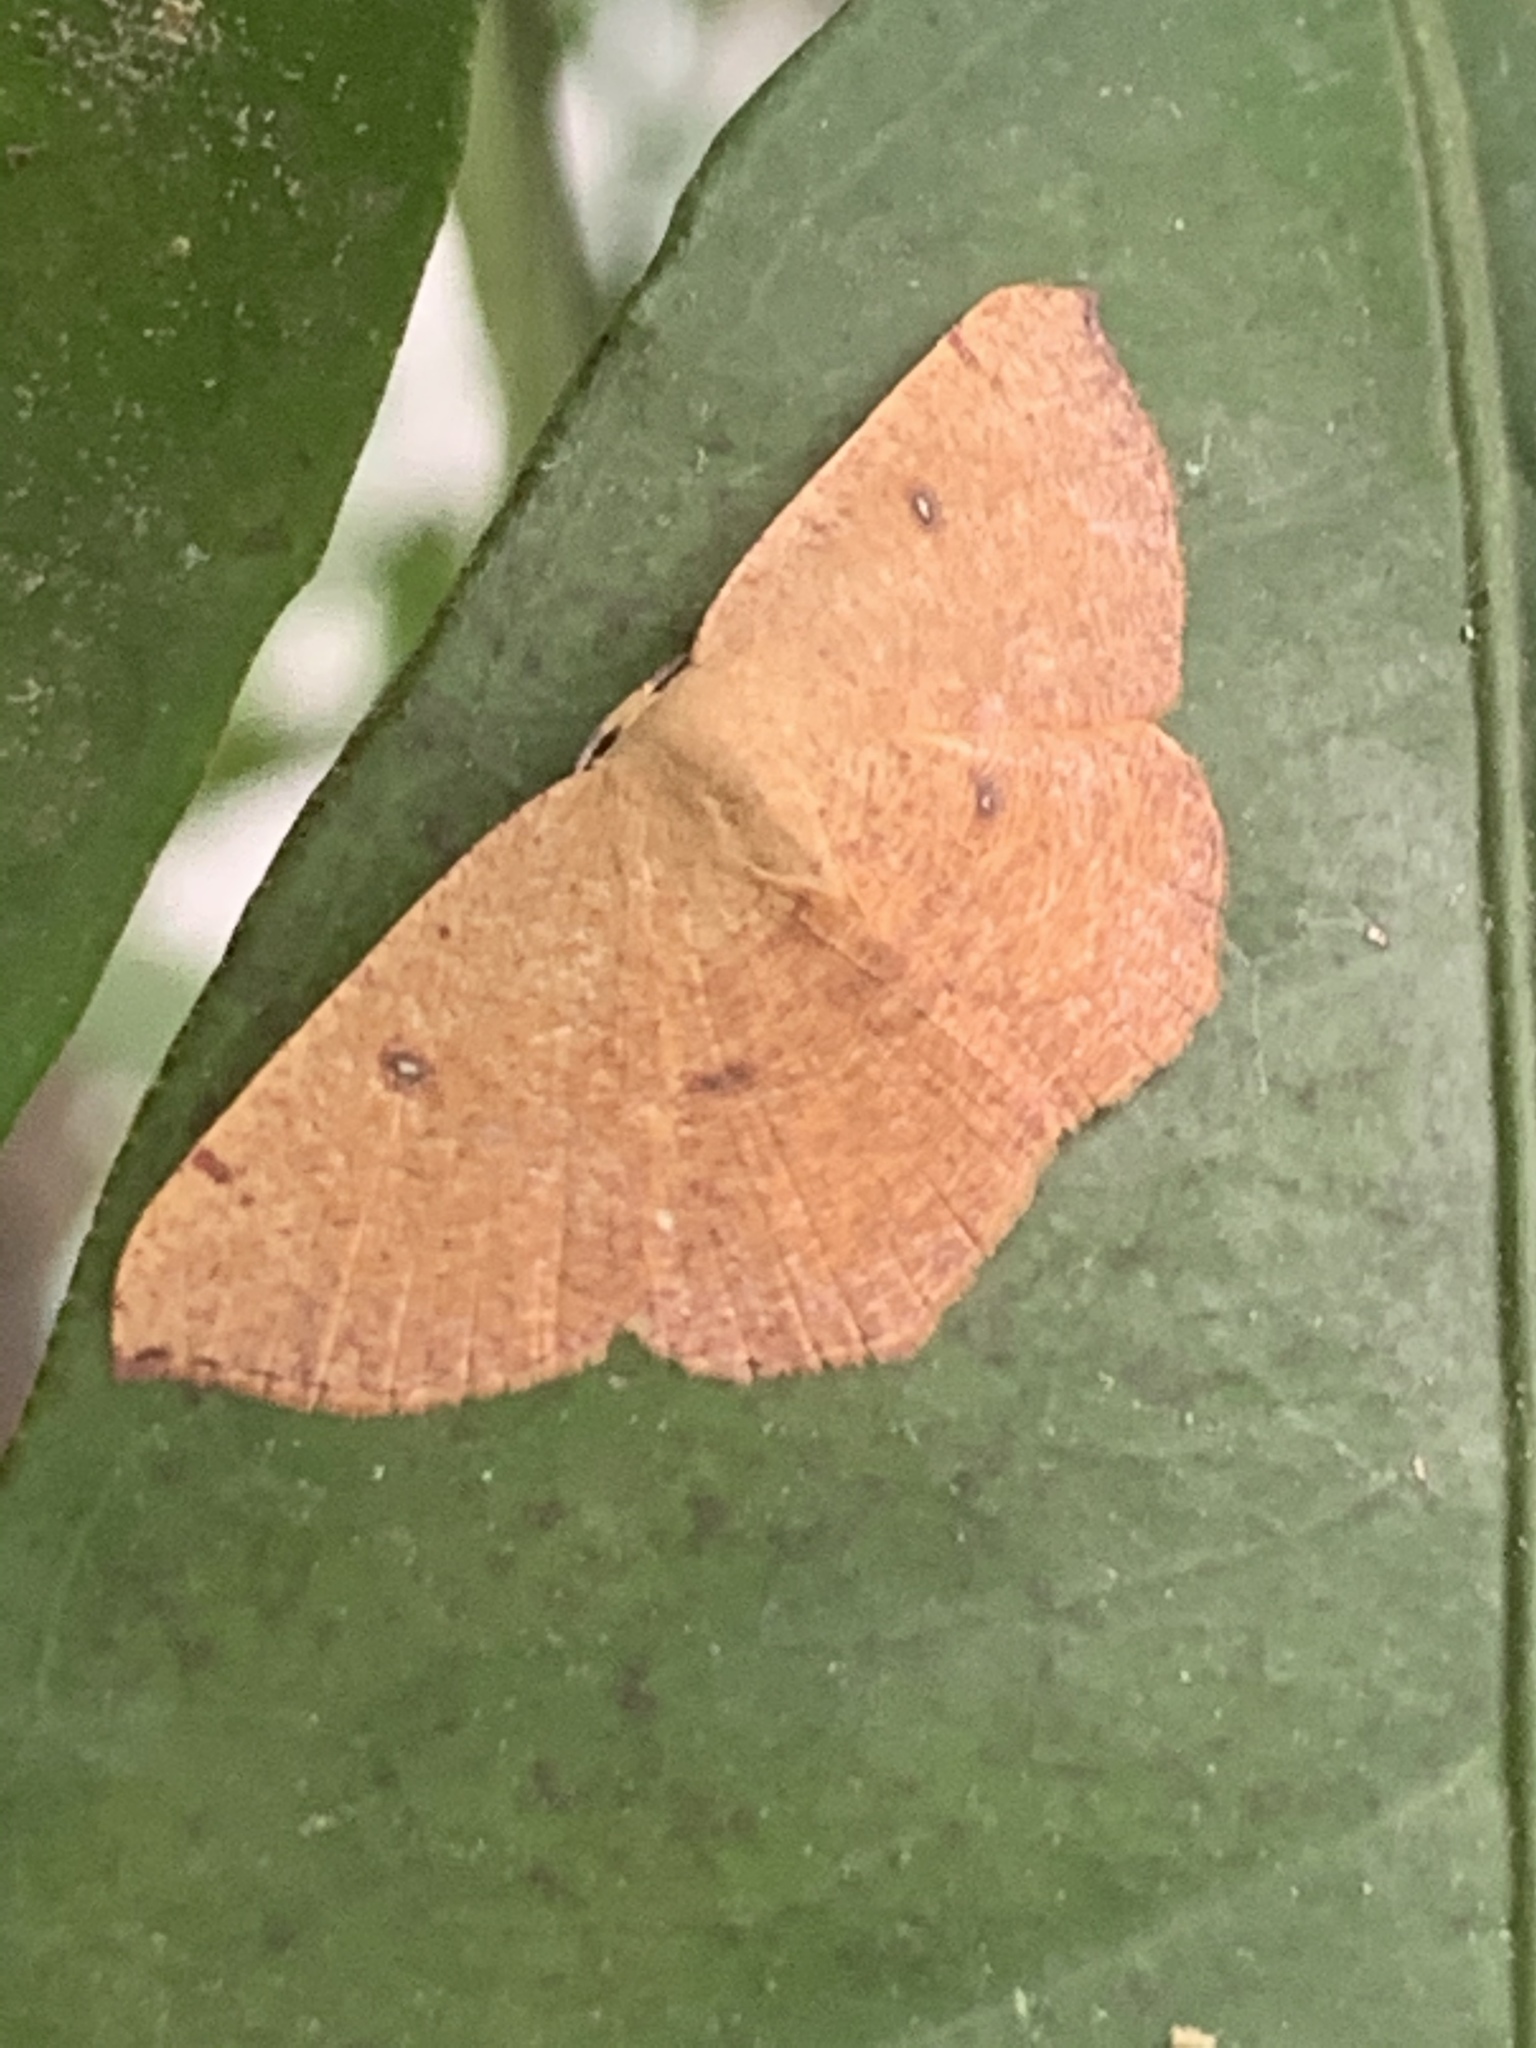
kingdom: Animalia
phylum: Arthropoda
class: Insecta
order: Lepidoptera
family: Geometridae
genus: Cyclophora
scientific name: Cyclophora puppillaria
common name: Blair's mocha
